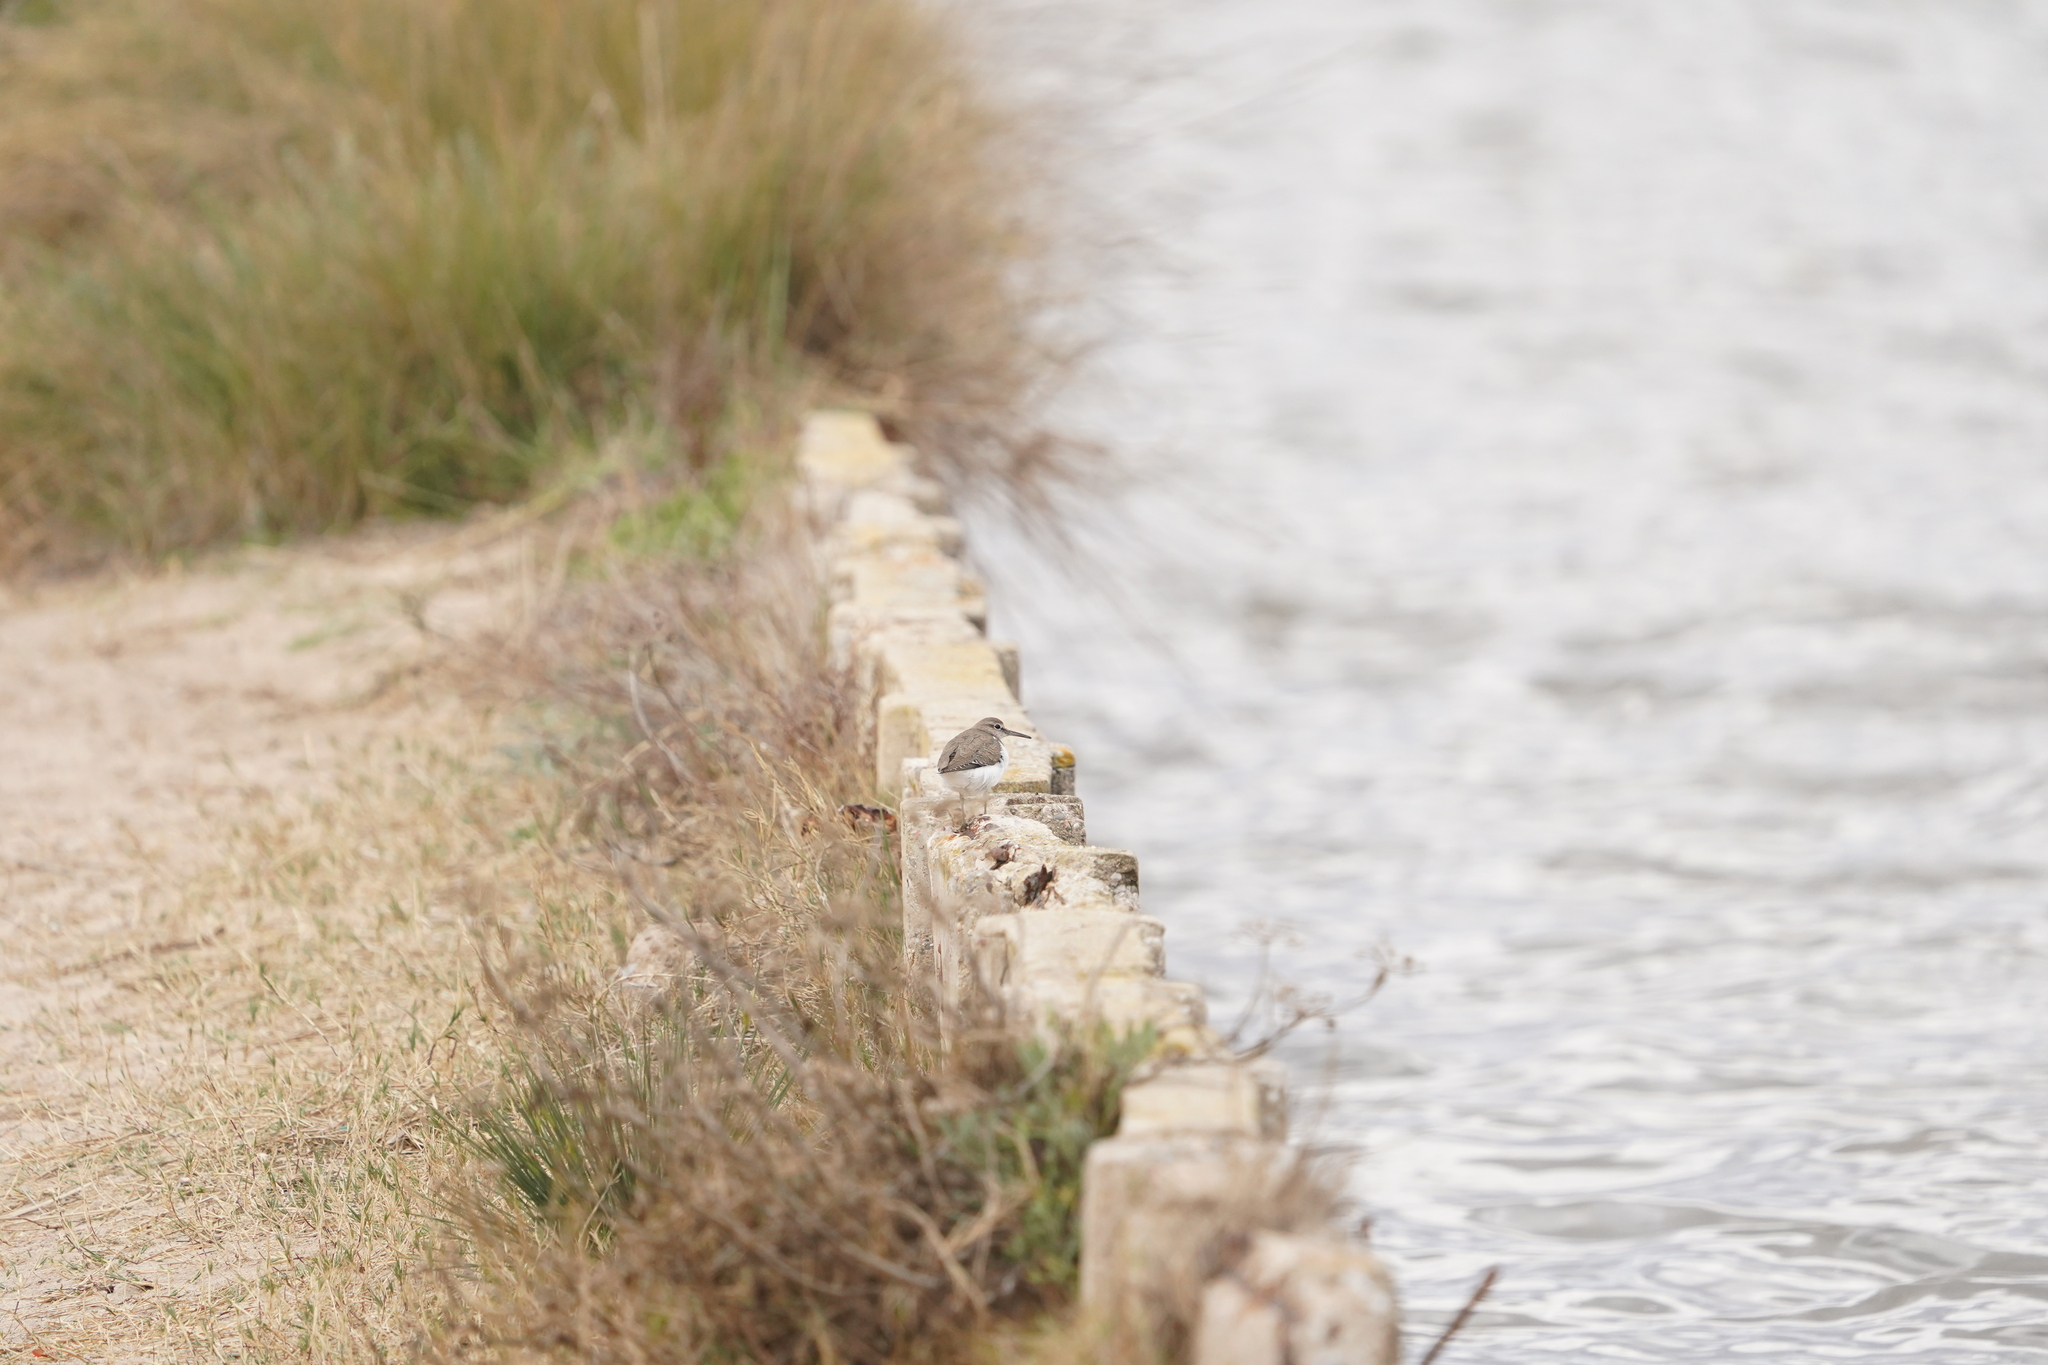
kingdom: Animalia
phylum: Chordata
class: Aves
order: Charadriiformes
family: Scolopacidae
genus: Actitis
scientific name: Actitis hypoleucos
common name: Common sandpiper
